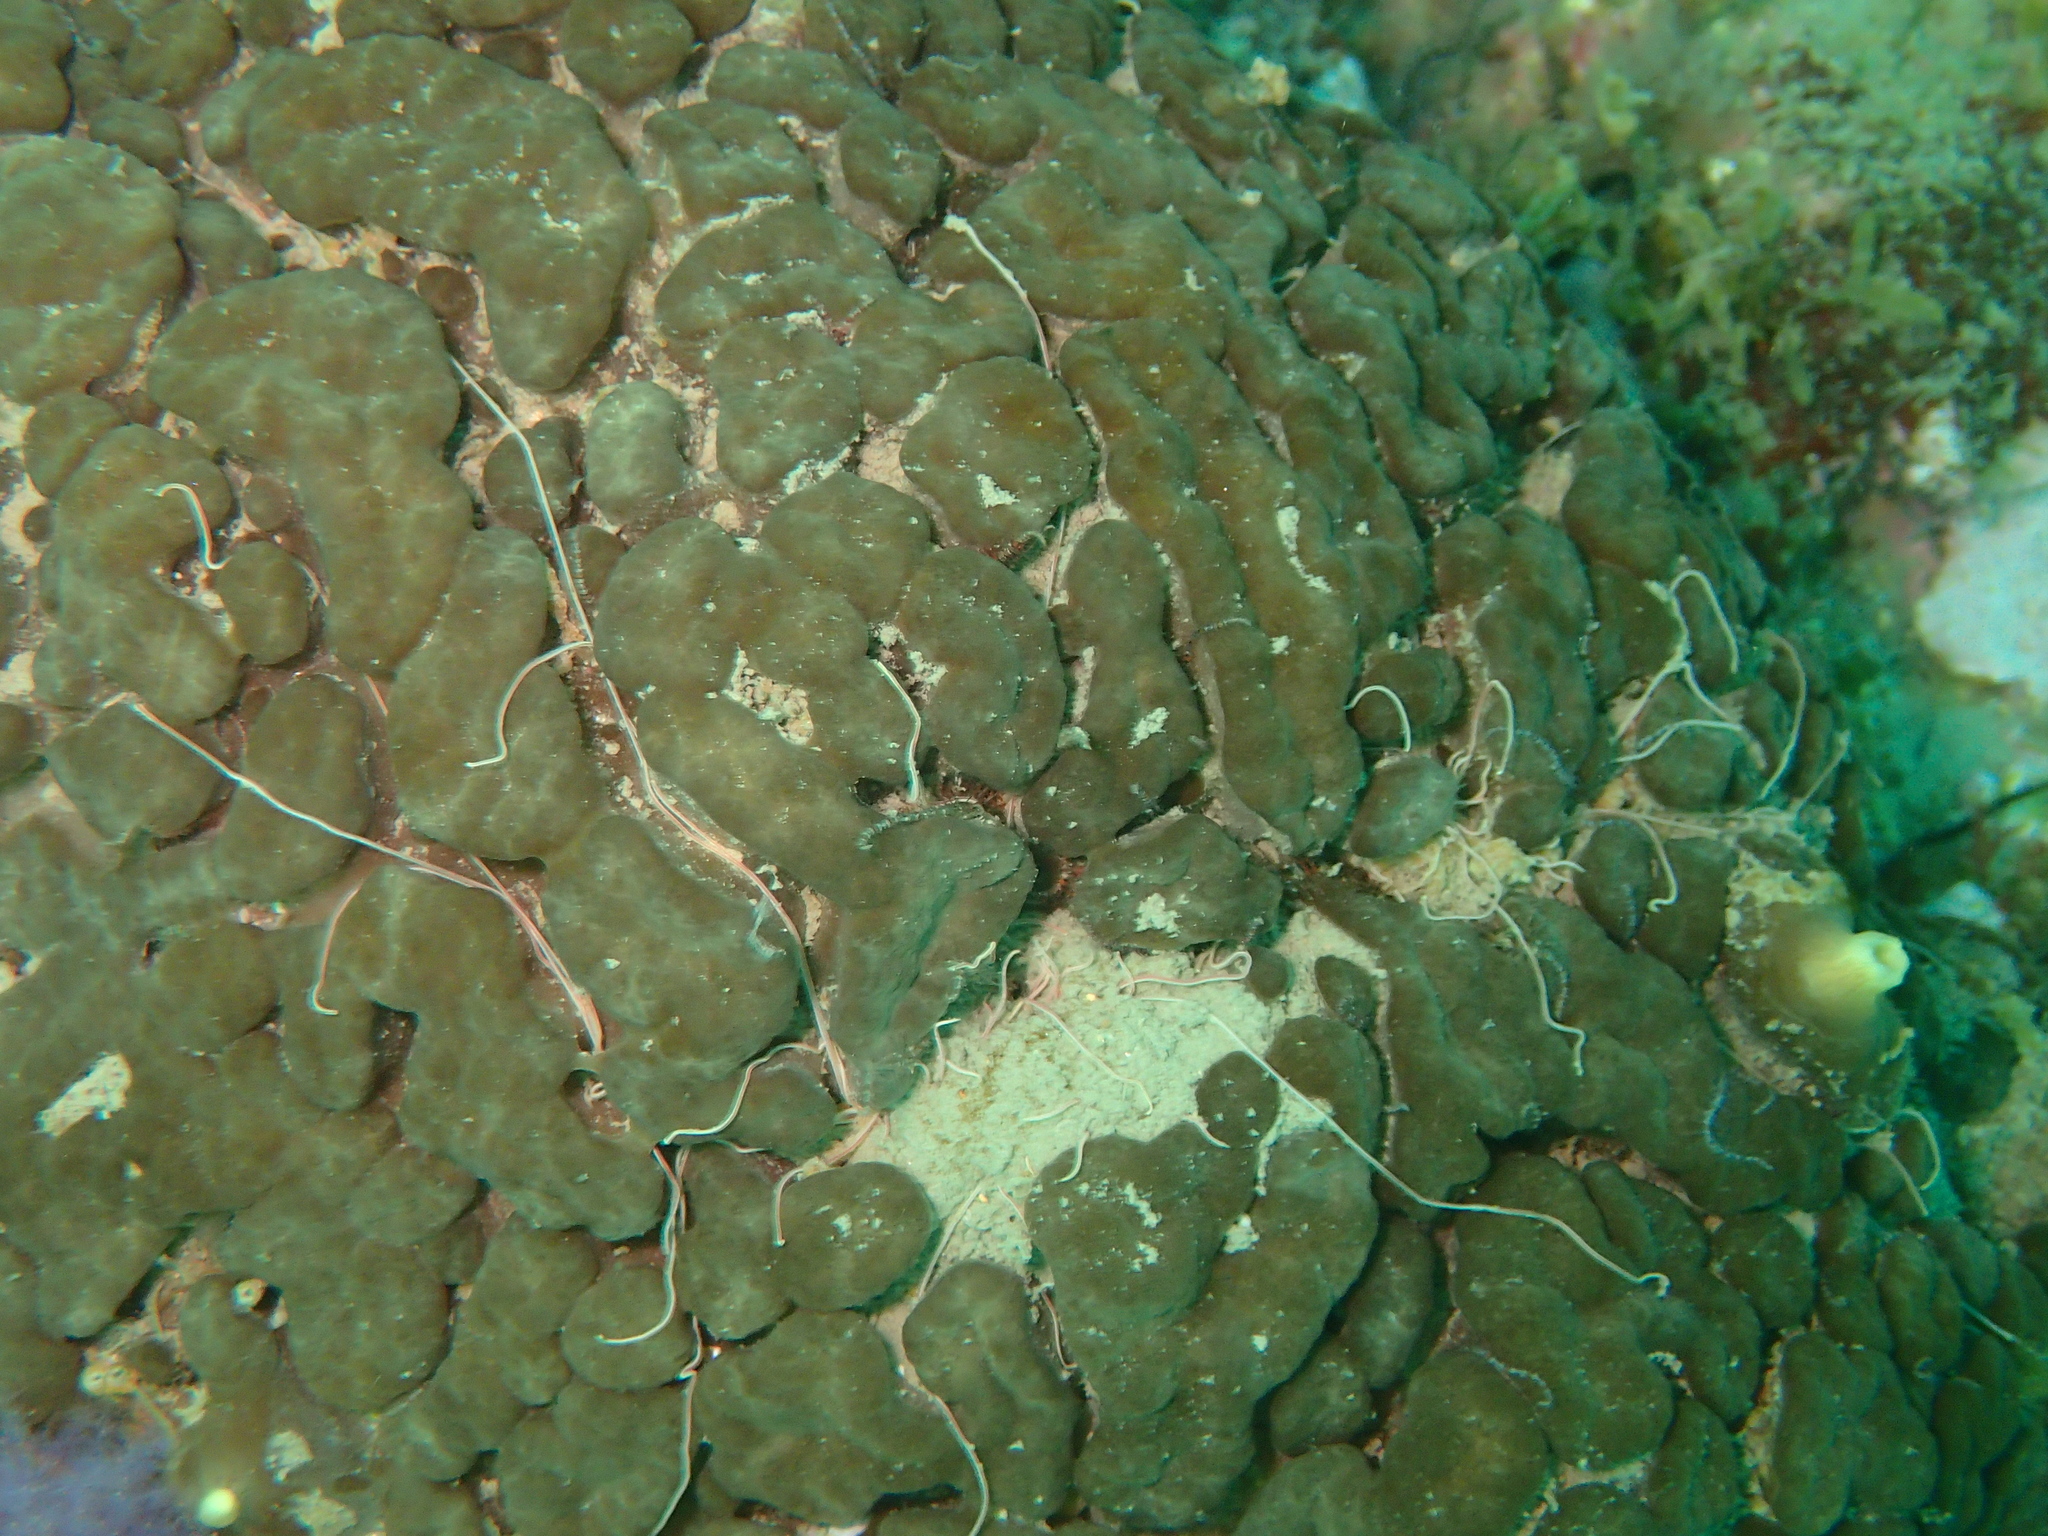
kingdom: Animalia
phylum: Porifera
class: Demospongiae
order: Clionaida
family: Clionaidae
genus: Cliona
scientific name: Cliona viridis
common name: Green boring sponge
